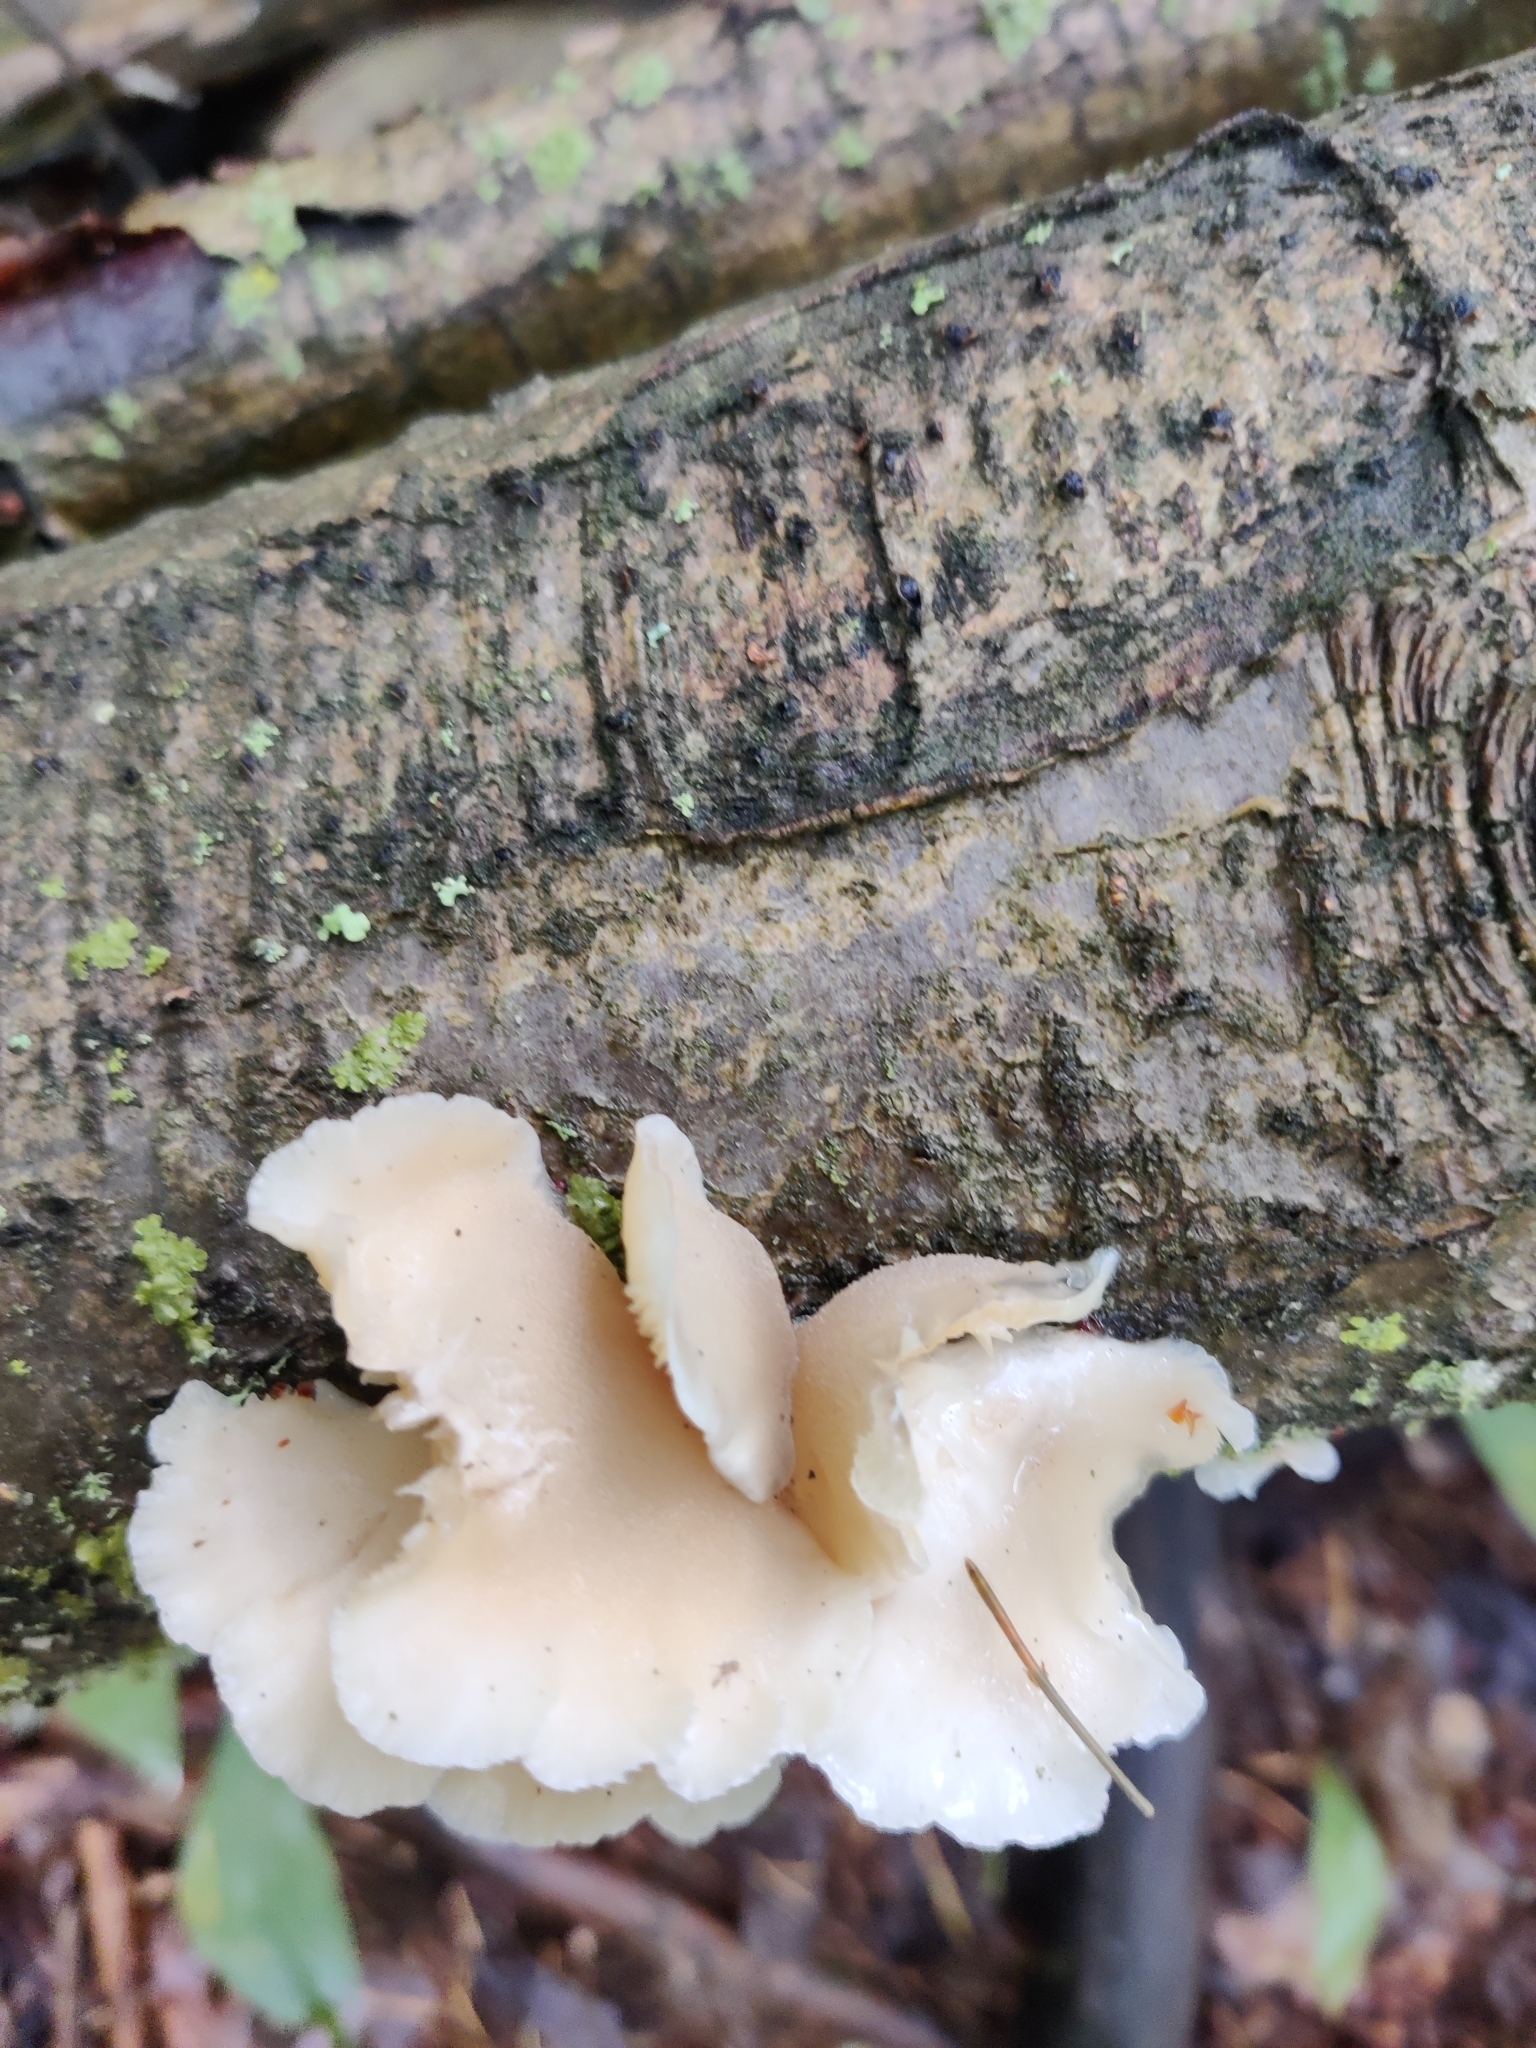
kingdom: Fungi
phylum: Basidiomycota
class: Agaricomycetes
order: Agaricales
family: Pleurotaceae
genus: Pleurotus
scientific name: Pleurotus pulmonarius
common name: Pale oyster
